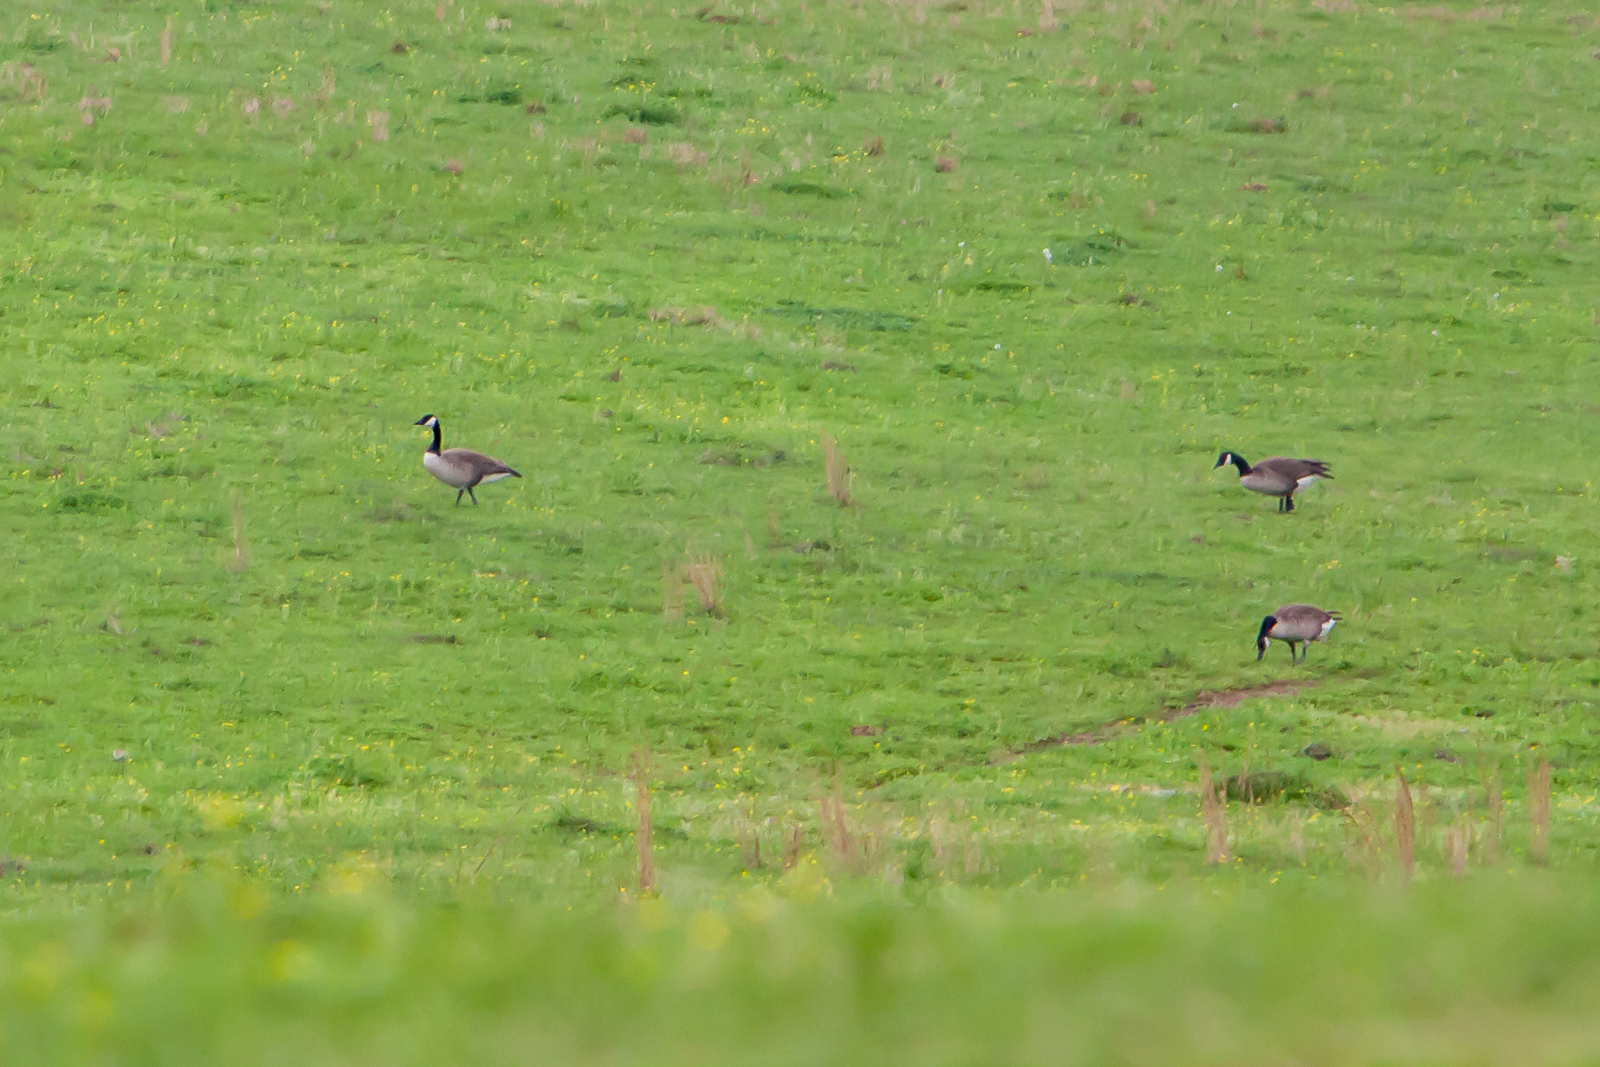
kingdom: Animalia
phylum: Chordata
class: Aves
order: Anseriformes
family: Anatidae
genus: Branta
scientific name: Branta canadensis
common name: Canada goose
